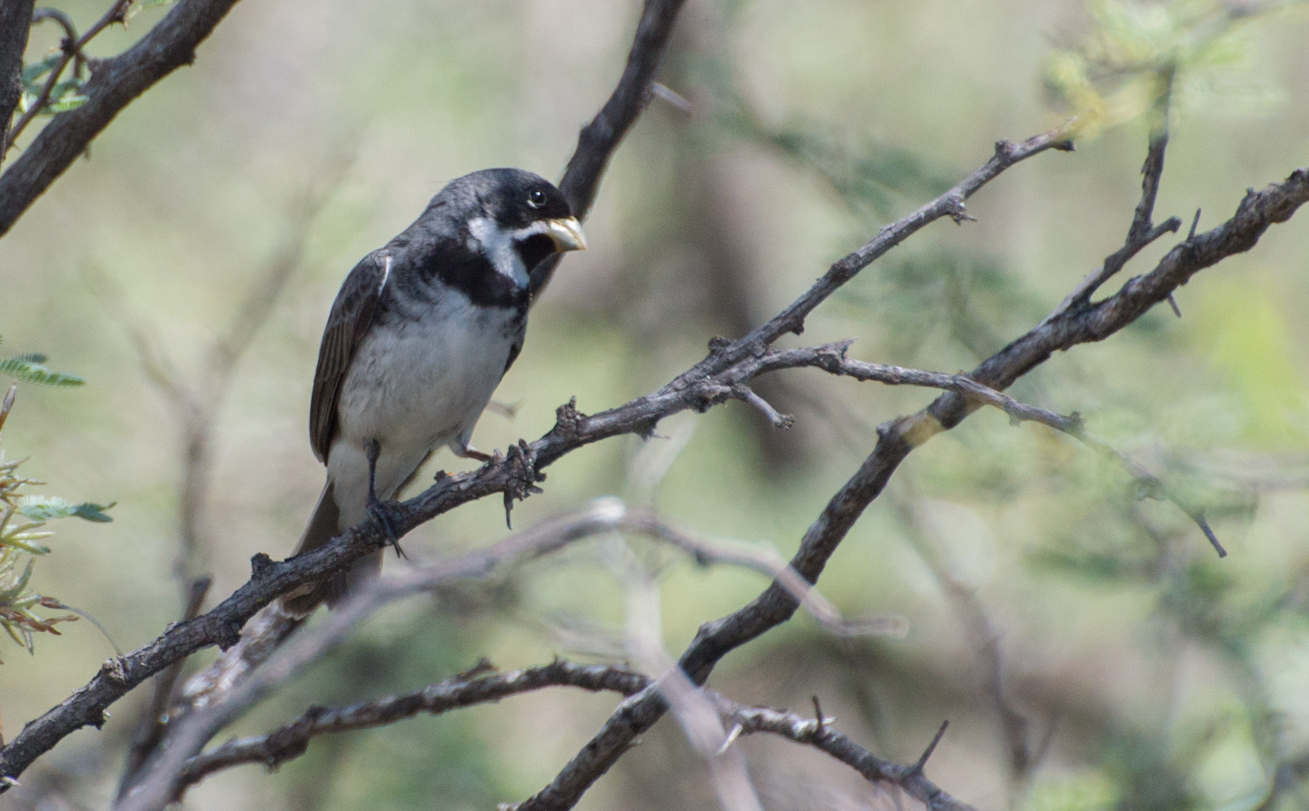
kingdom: Animalia
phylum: Chordata
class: Aves
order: Passeriformes
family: Thraupidae
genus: Sporophila
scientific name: Sporophila caerulescens
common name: Double-collared seedeater
